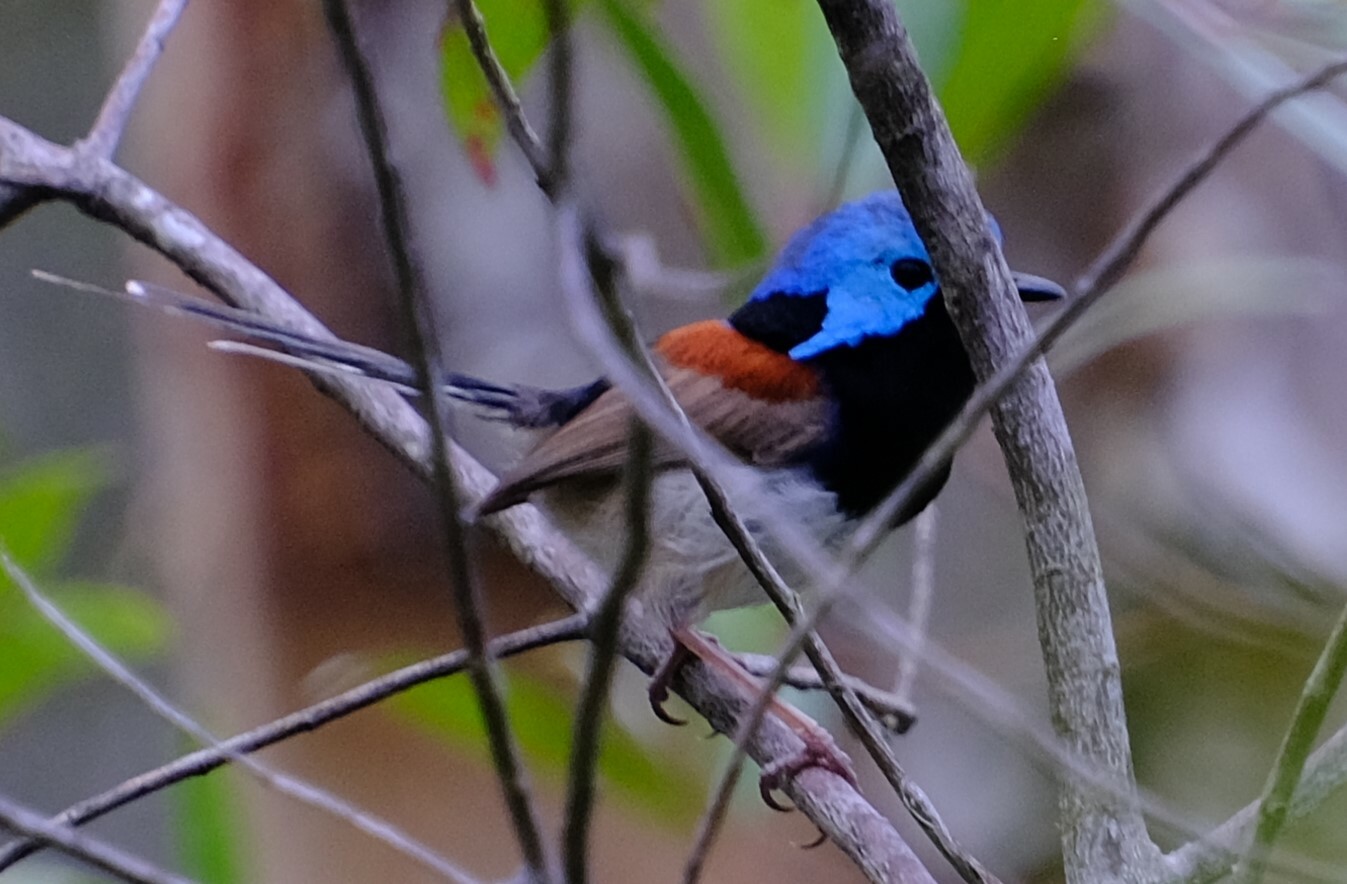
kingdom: Animalia
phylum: Chordata
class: Aves
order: Passeriformes
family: Maluridae
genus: Malurus
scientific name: Malurus lamberti
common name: Variegated fairywren
